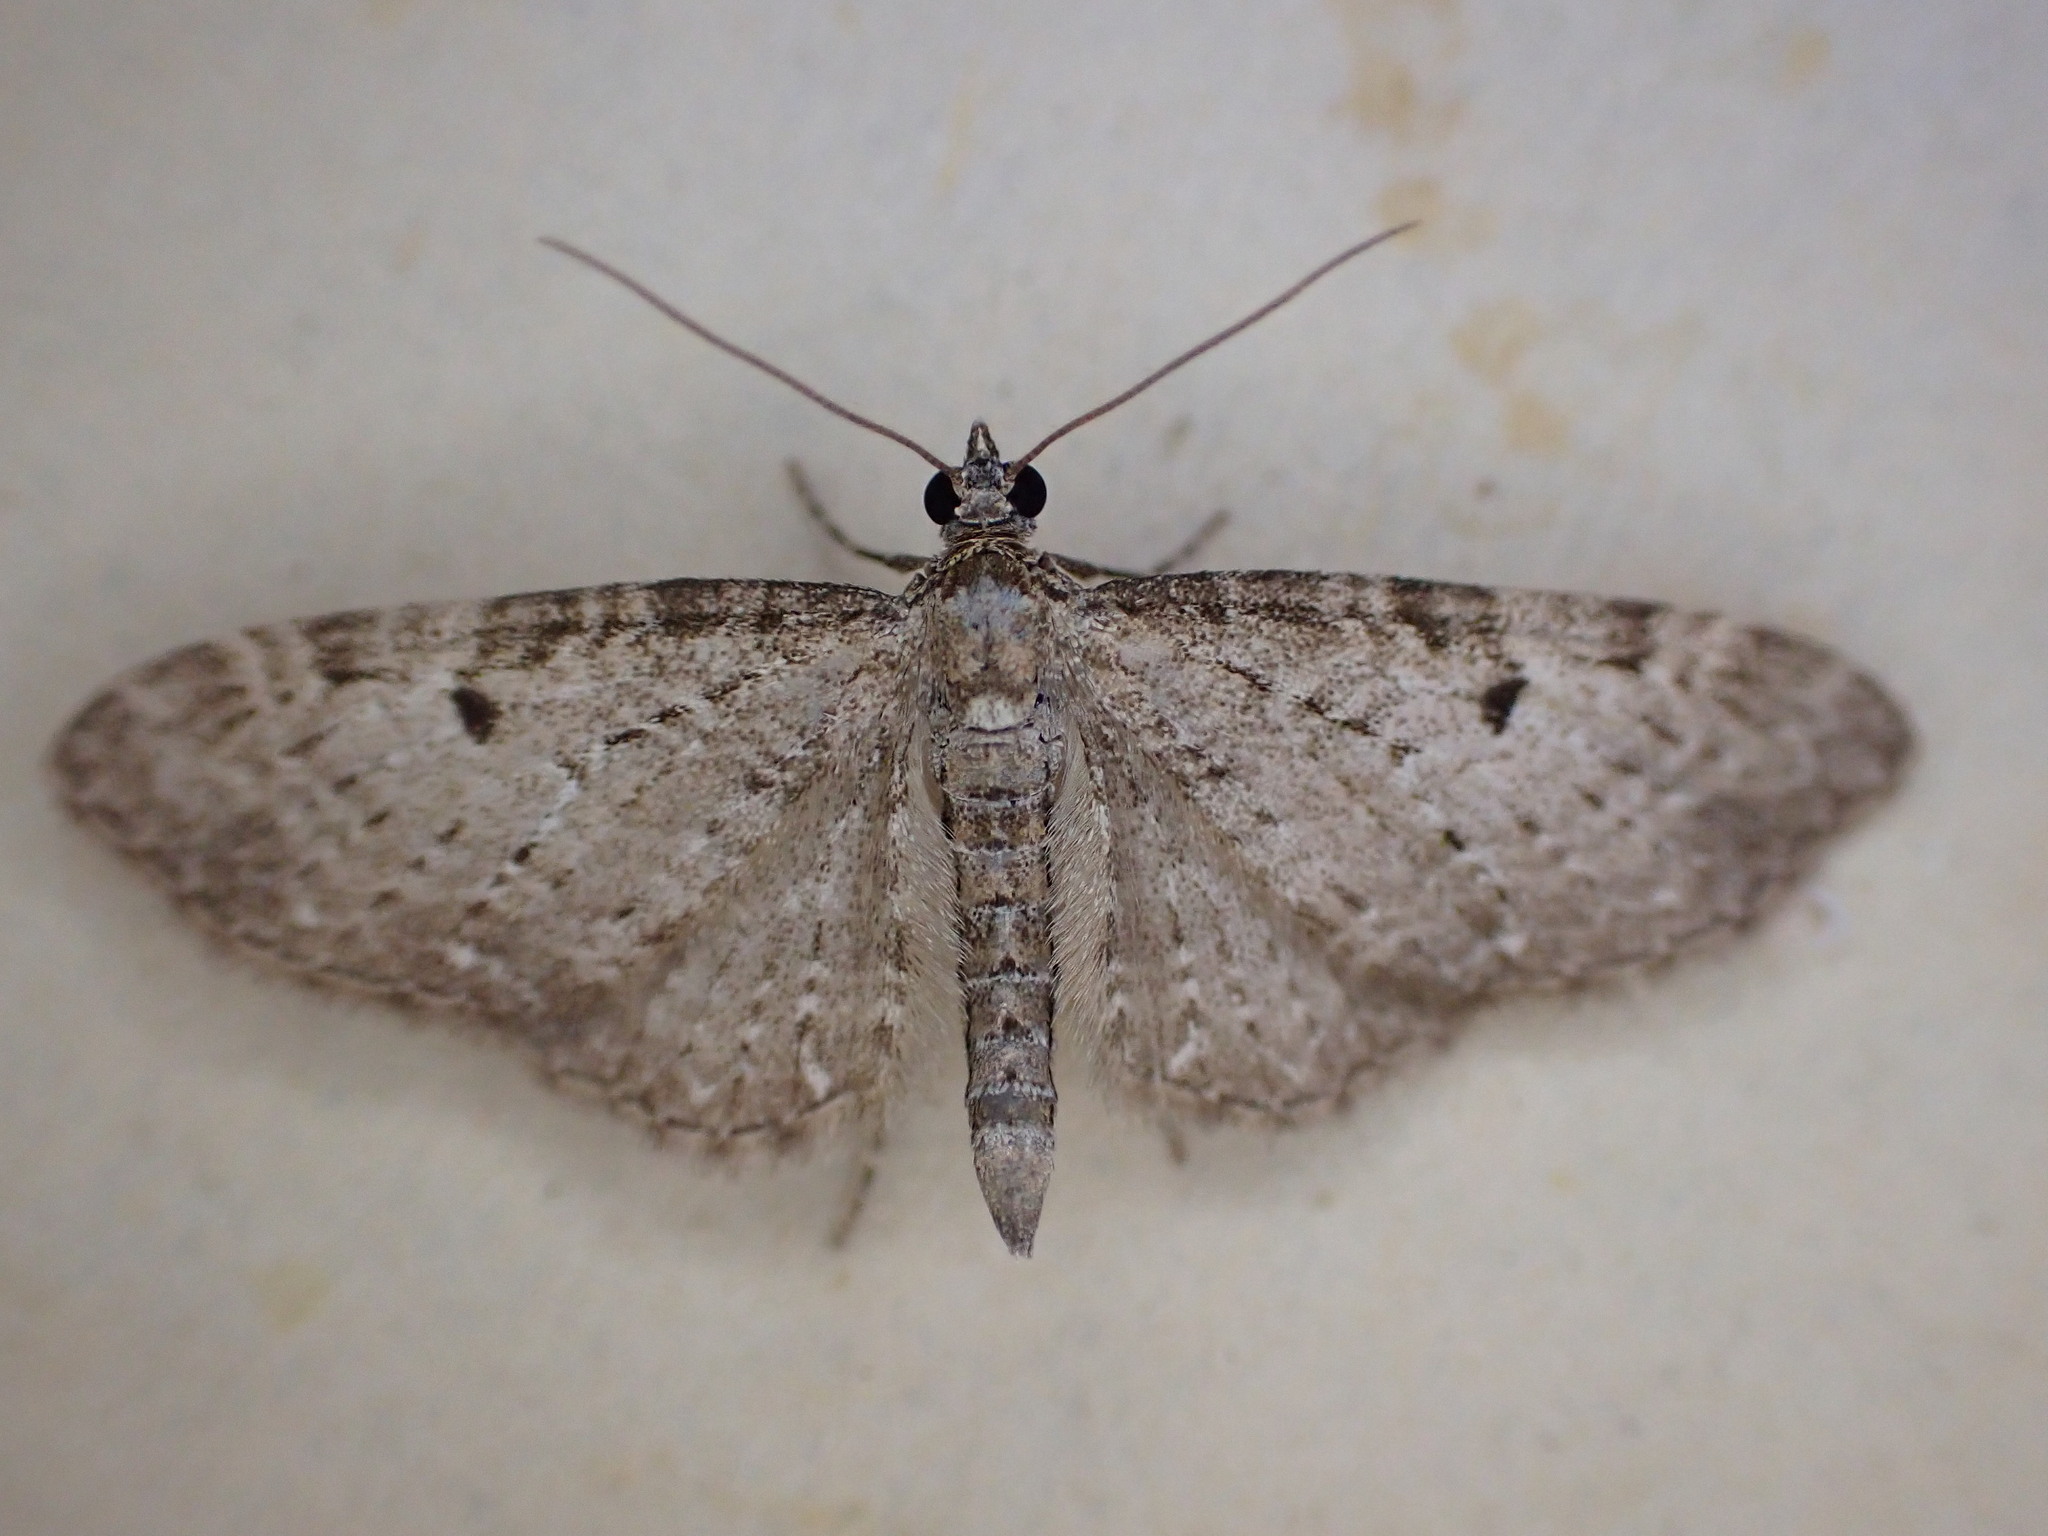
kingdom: Animalia
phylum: Arthropoda
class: Insecta
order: Lepidoptera
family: Geometridae
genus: Eupithecia
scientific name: Eupithecia virgaureata
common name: Golden-rod pug
